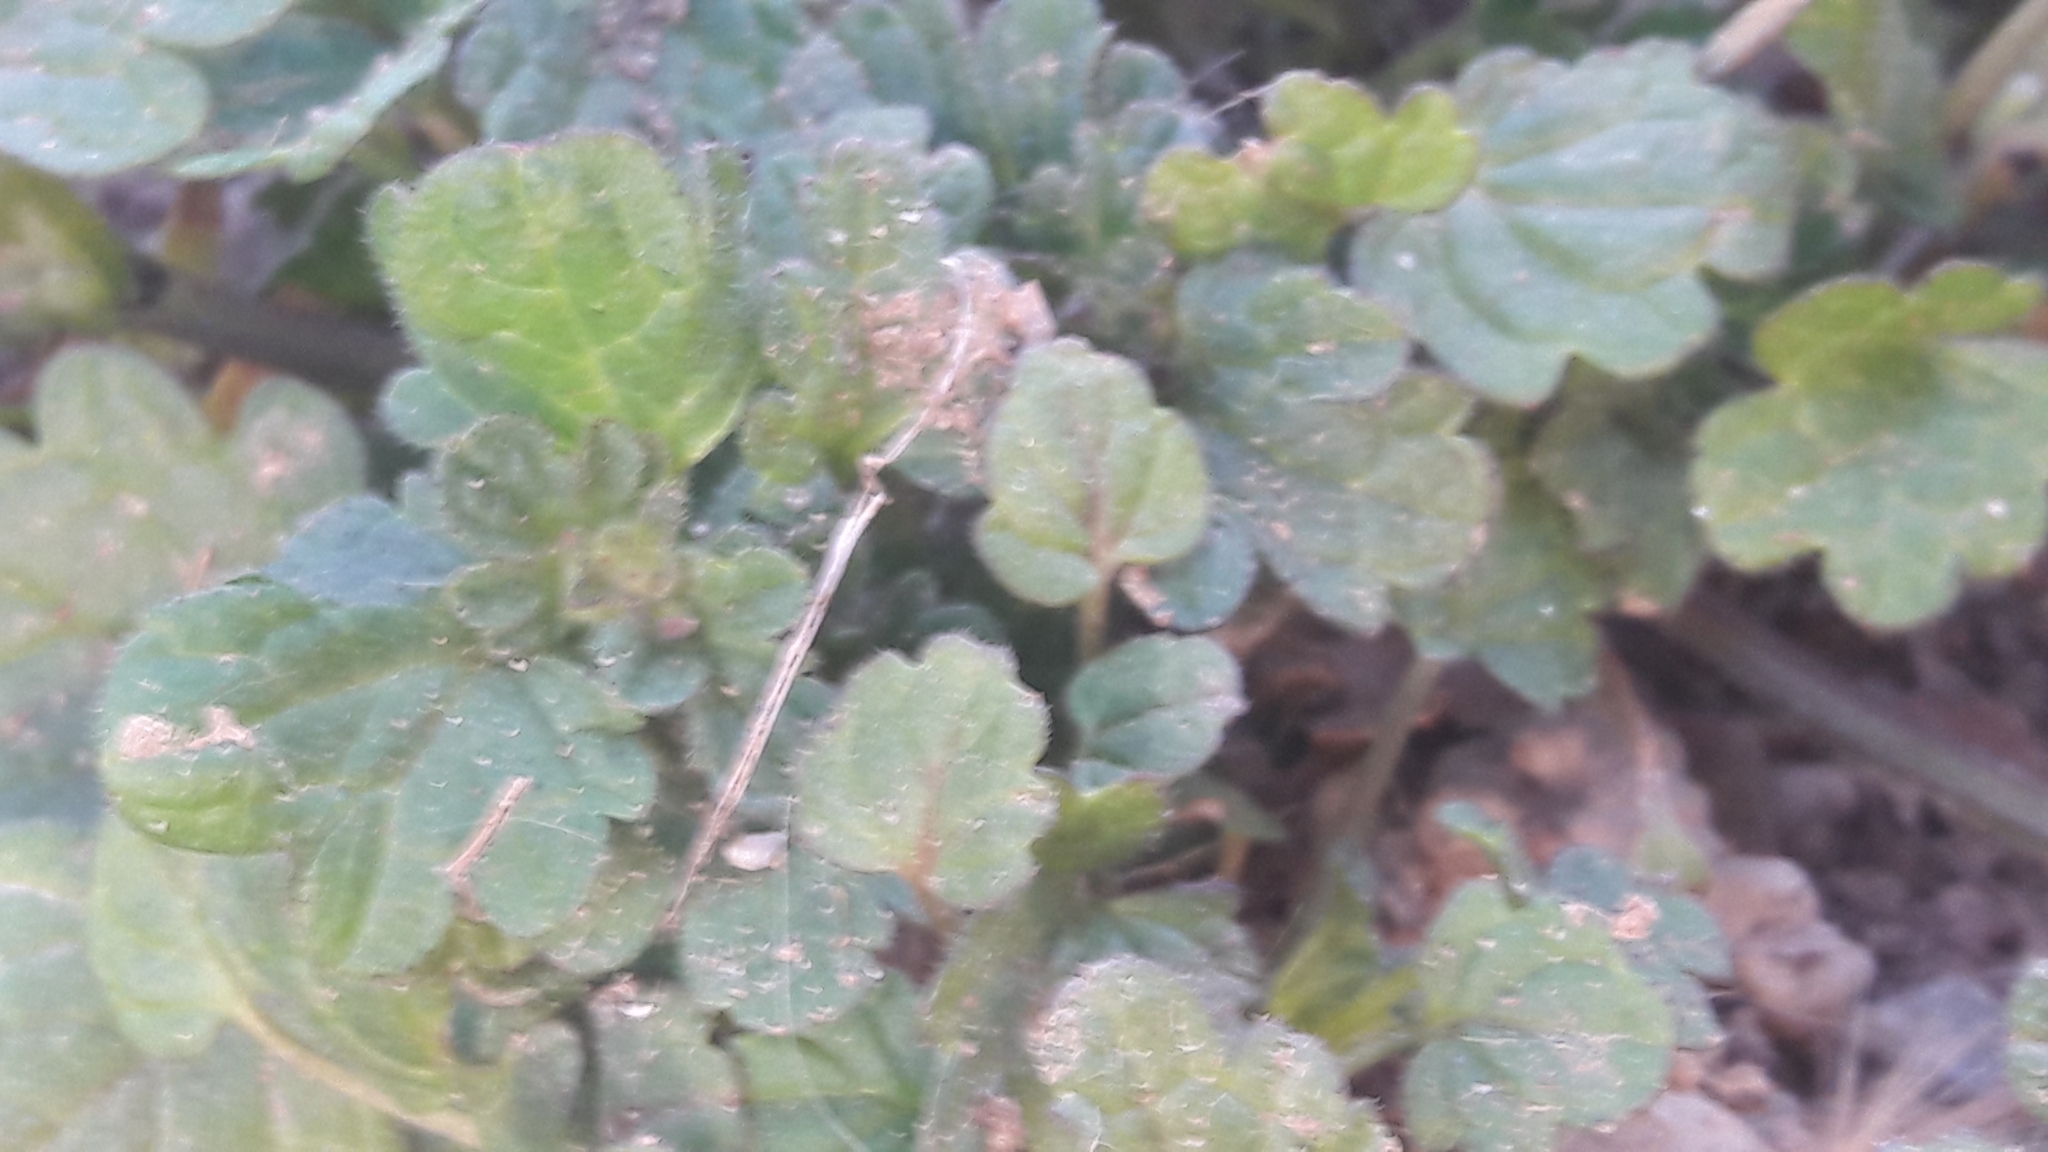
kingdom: Plantae
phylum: Tracheophyta
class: Magnoliopsida
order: Lamiales
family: Lamiaceae
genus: Lamium
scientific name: Lamium amplexicaule
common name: Henbit dead-nettle
